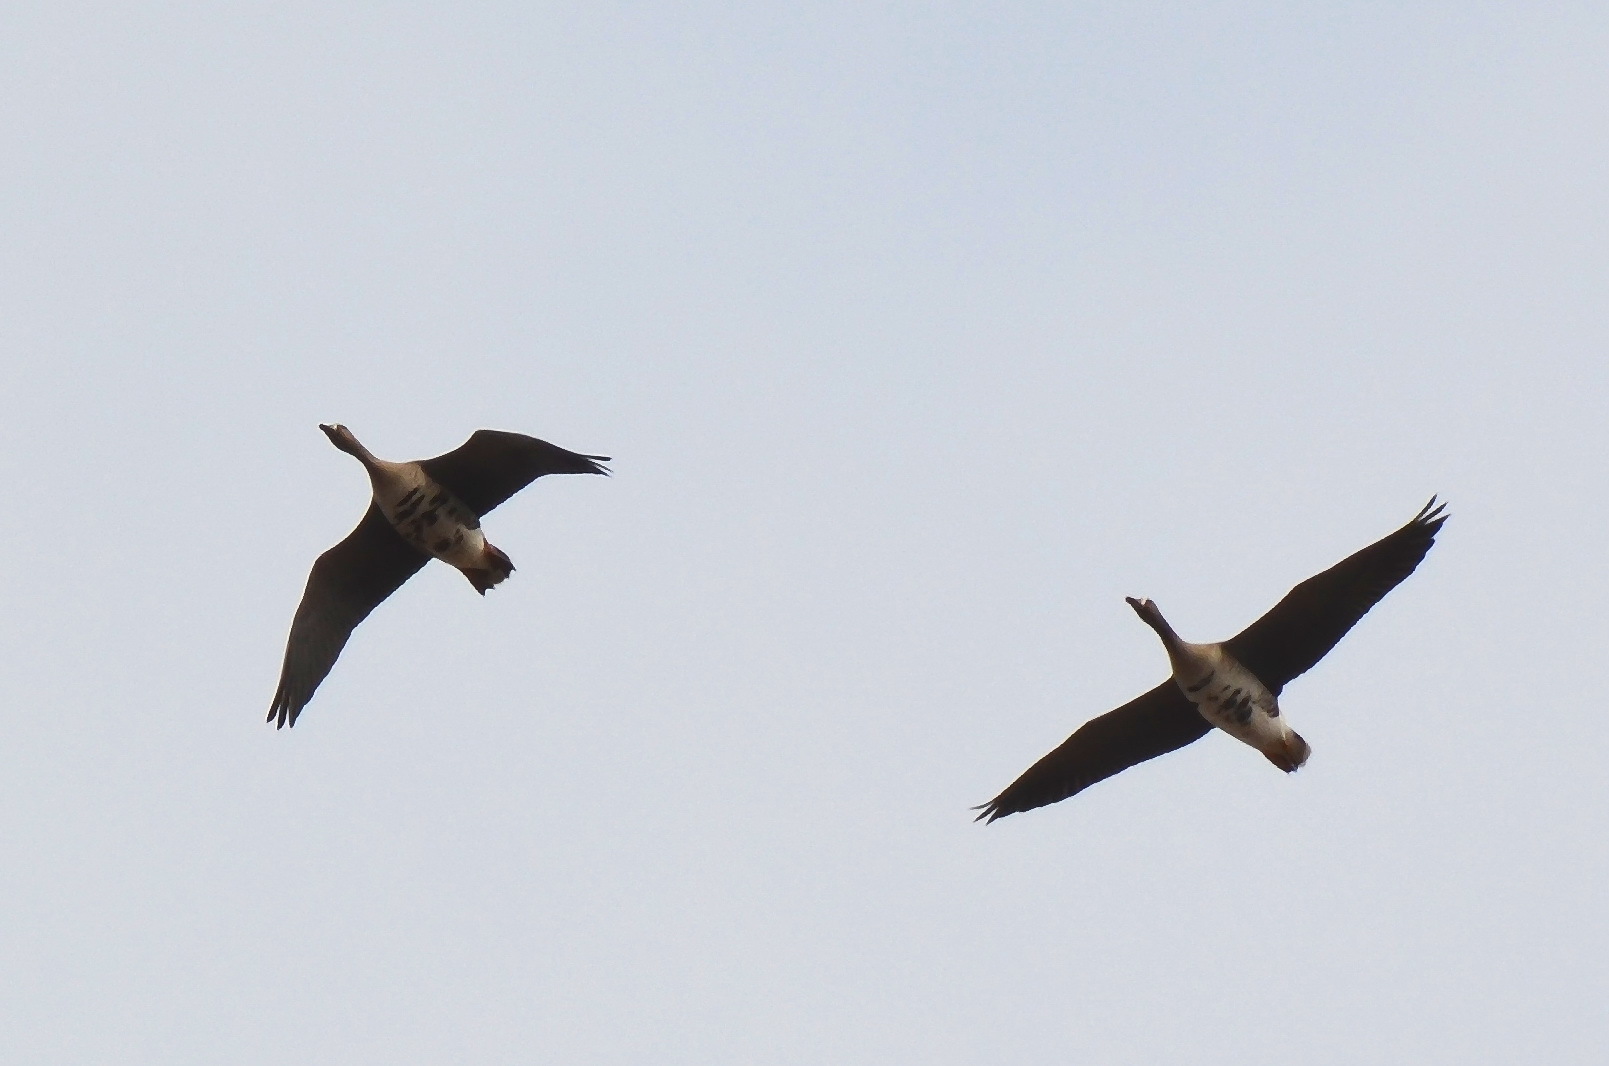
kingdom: Animalia
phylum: Chordata
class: Aves
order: Anseriformes
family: Anatidae
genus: Anser
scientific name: Anser albifrons
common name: Greater white-fronted goose
